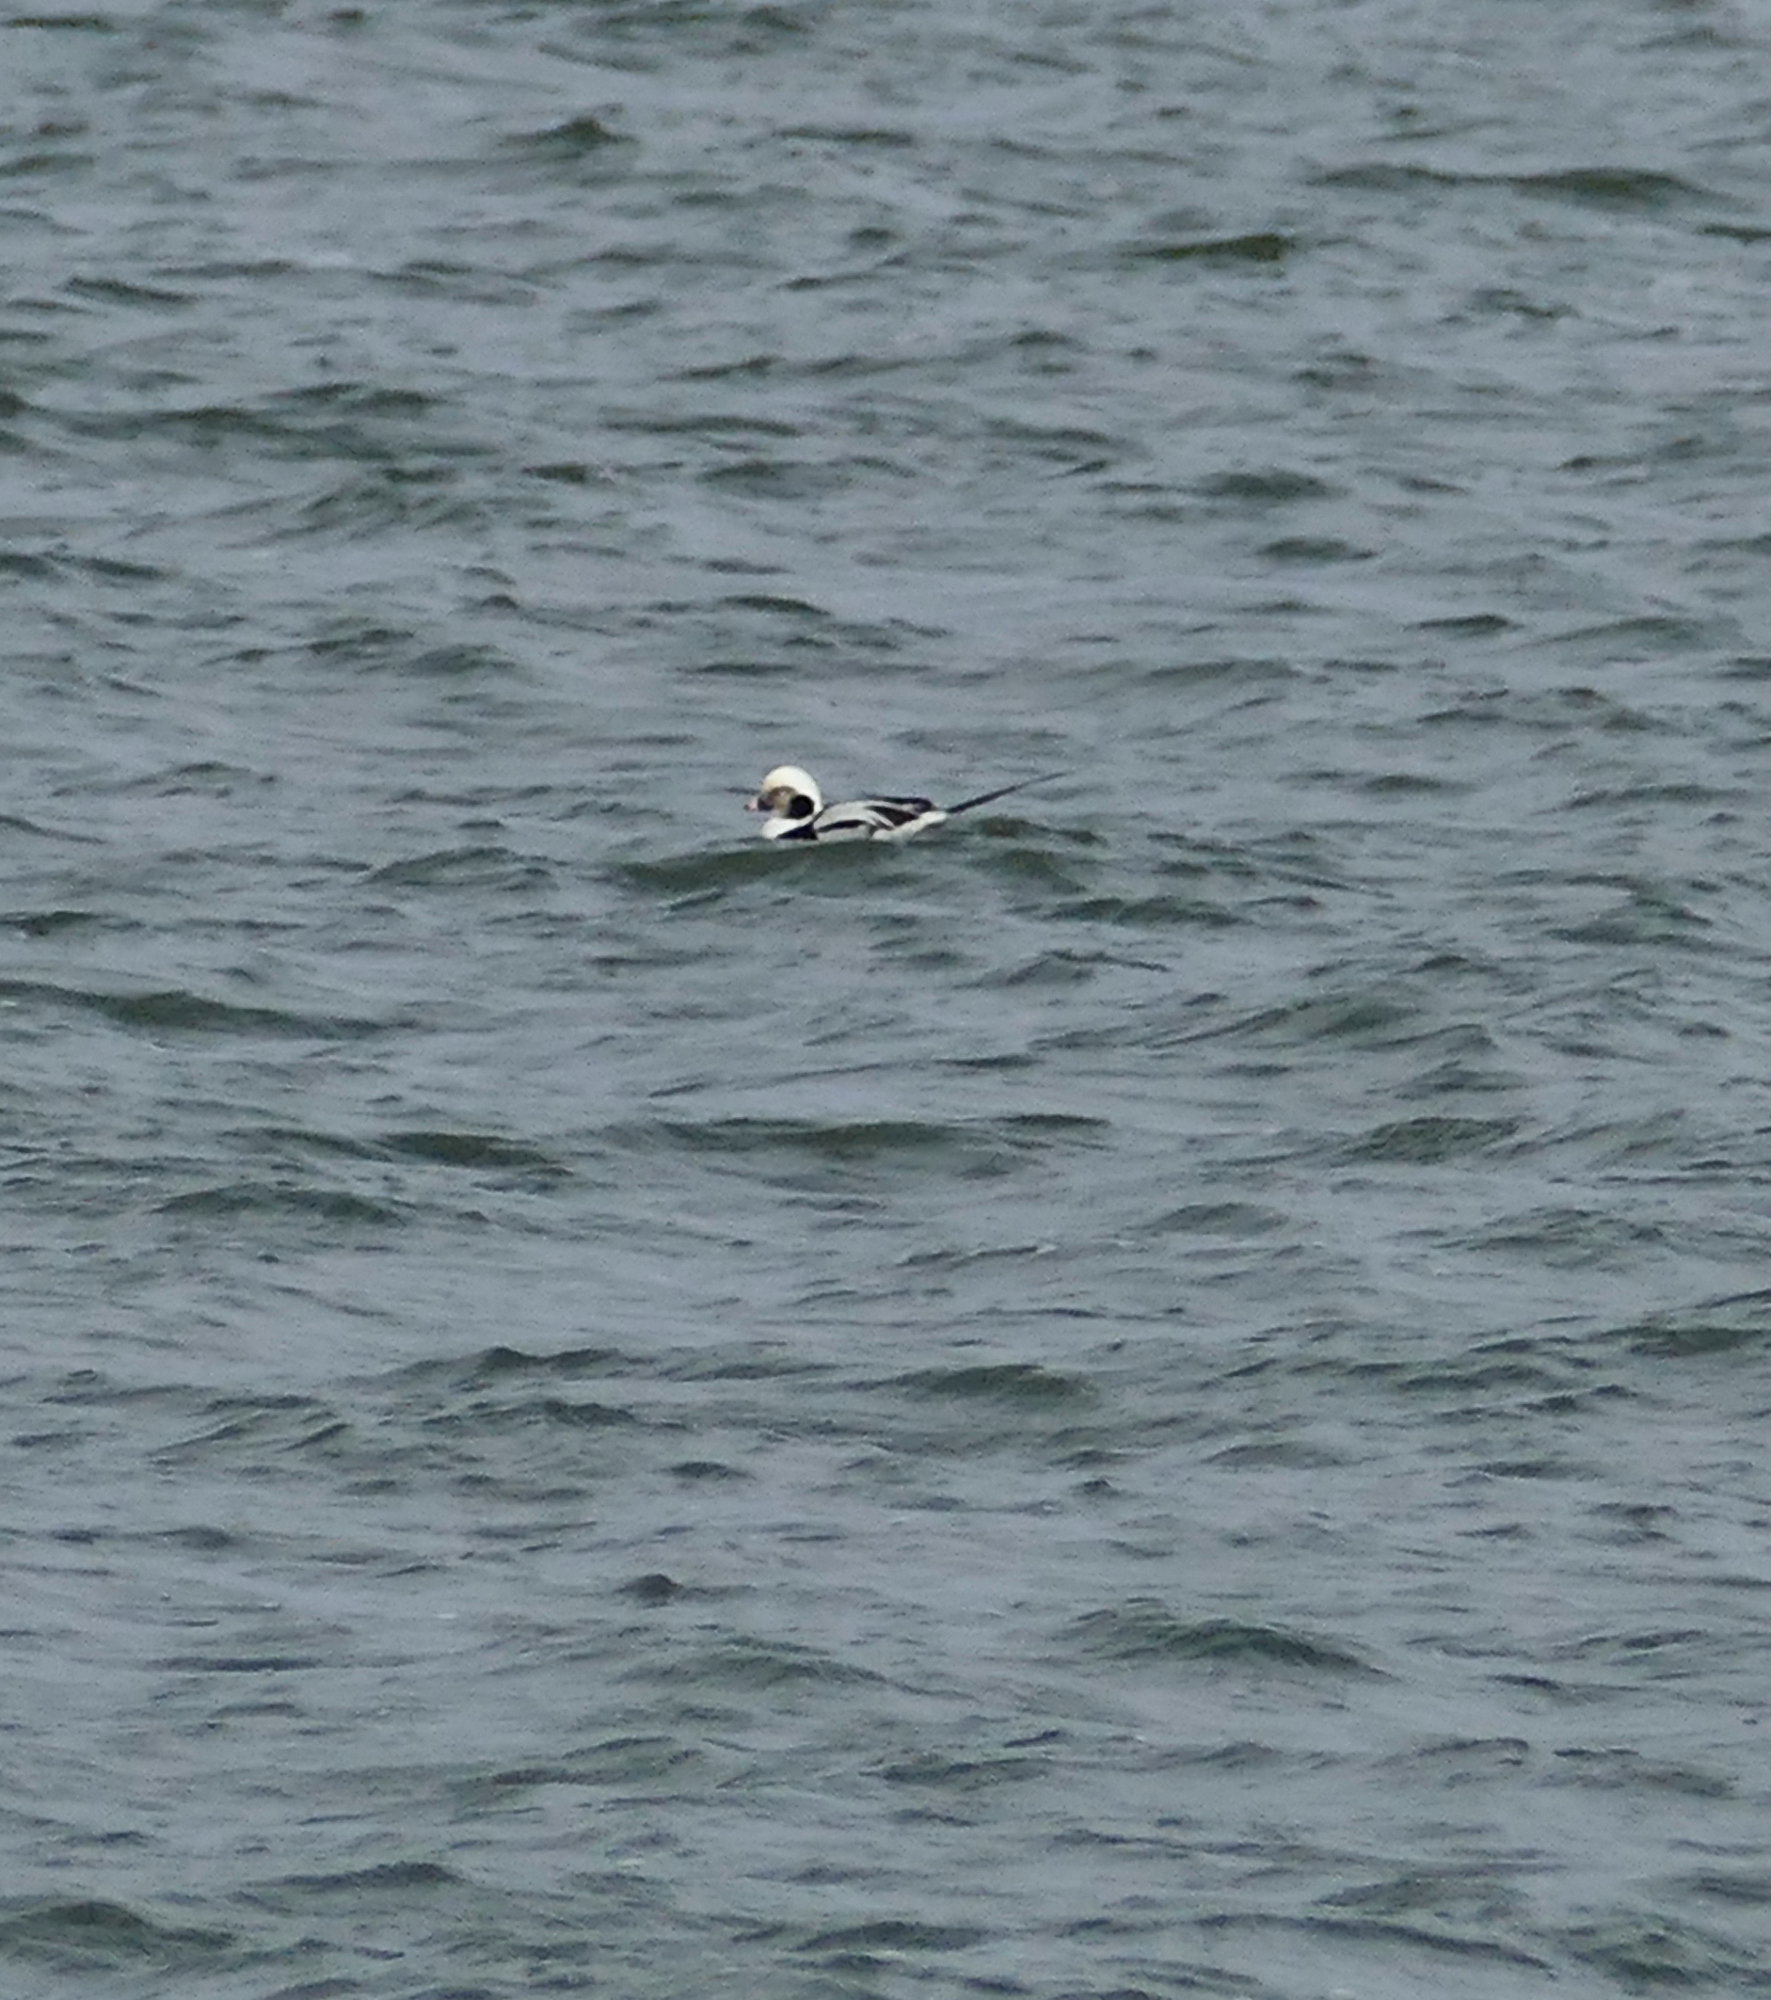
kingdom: Animalia
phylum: Chordata
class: Aves
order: Anseriformes
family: Anatidae
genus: Clangula
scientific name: Clangula hyemalis
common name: Long-tailed duck
